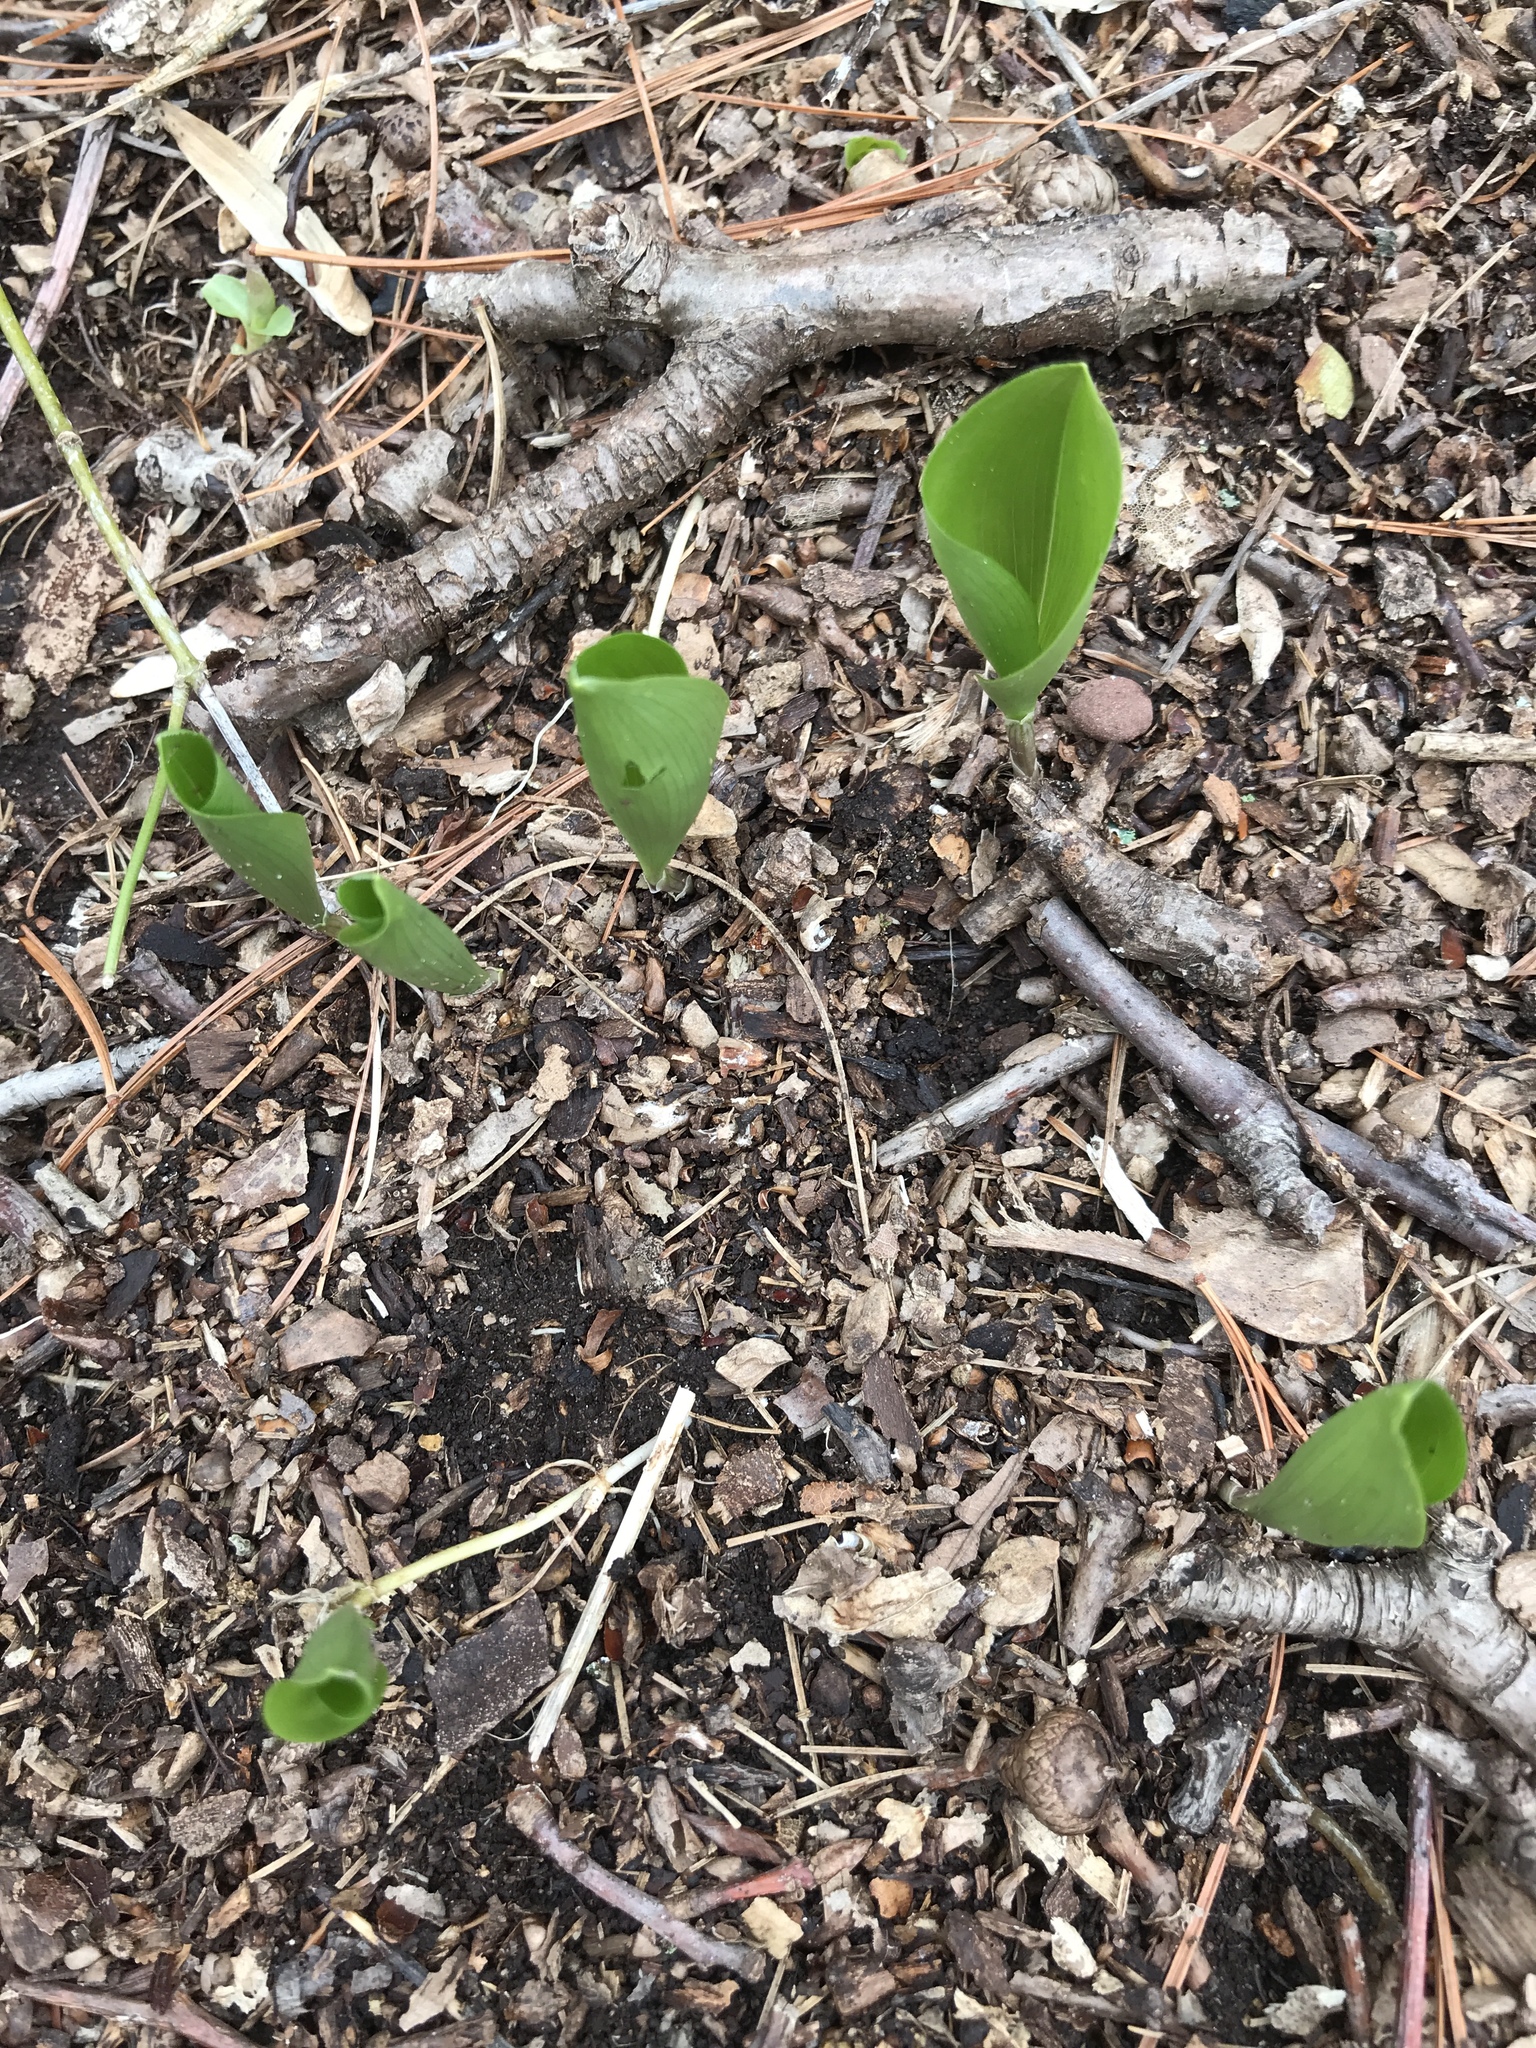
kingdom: Plantae
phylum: Tracheophyta
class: Liliopsida
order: Asparagales
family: Asparagaceae
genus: Maianthemum
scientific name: Maianthemum canadense
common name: False lily-of-the-valley
